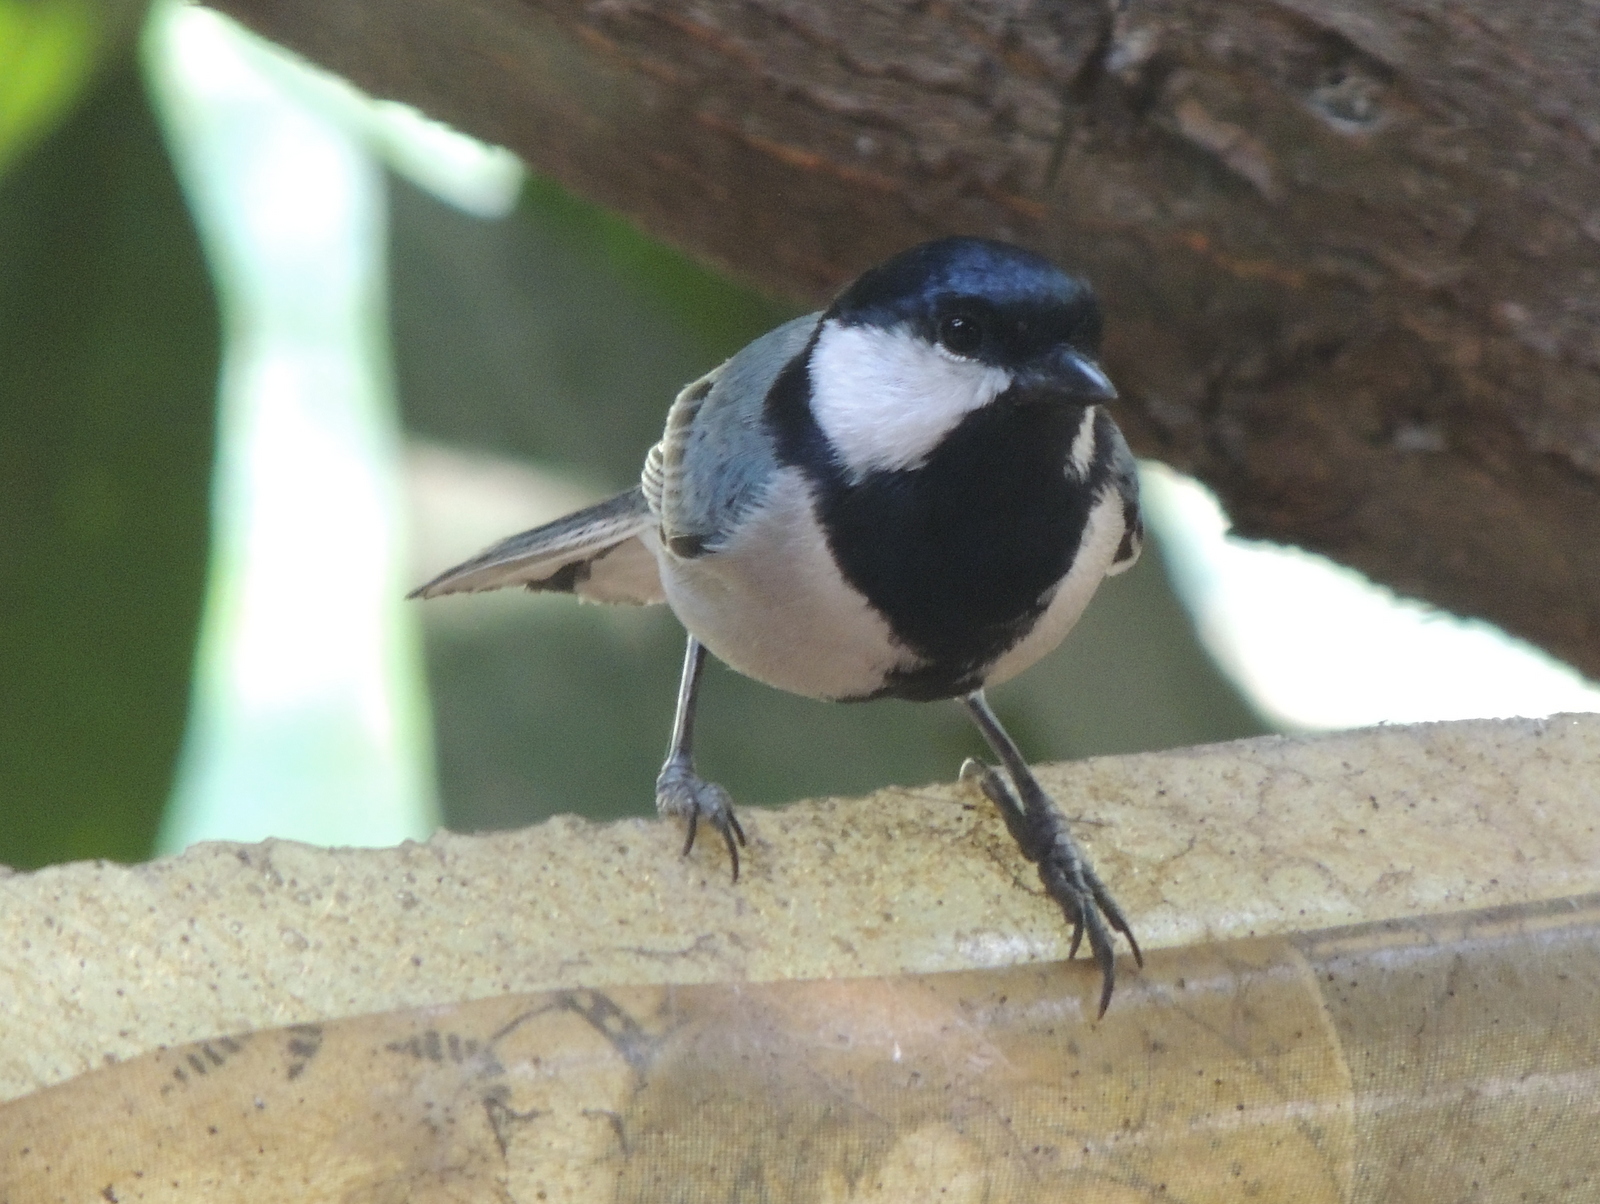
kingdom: Animalia
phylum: Chordata
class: Aves
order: Passeriformes
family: Paridae
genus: Parus
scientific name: Parus cinereus
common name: Cinereous tit
